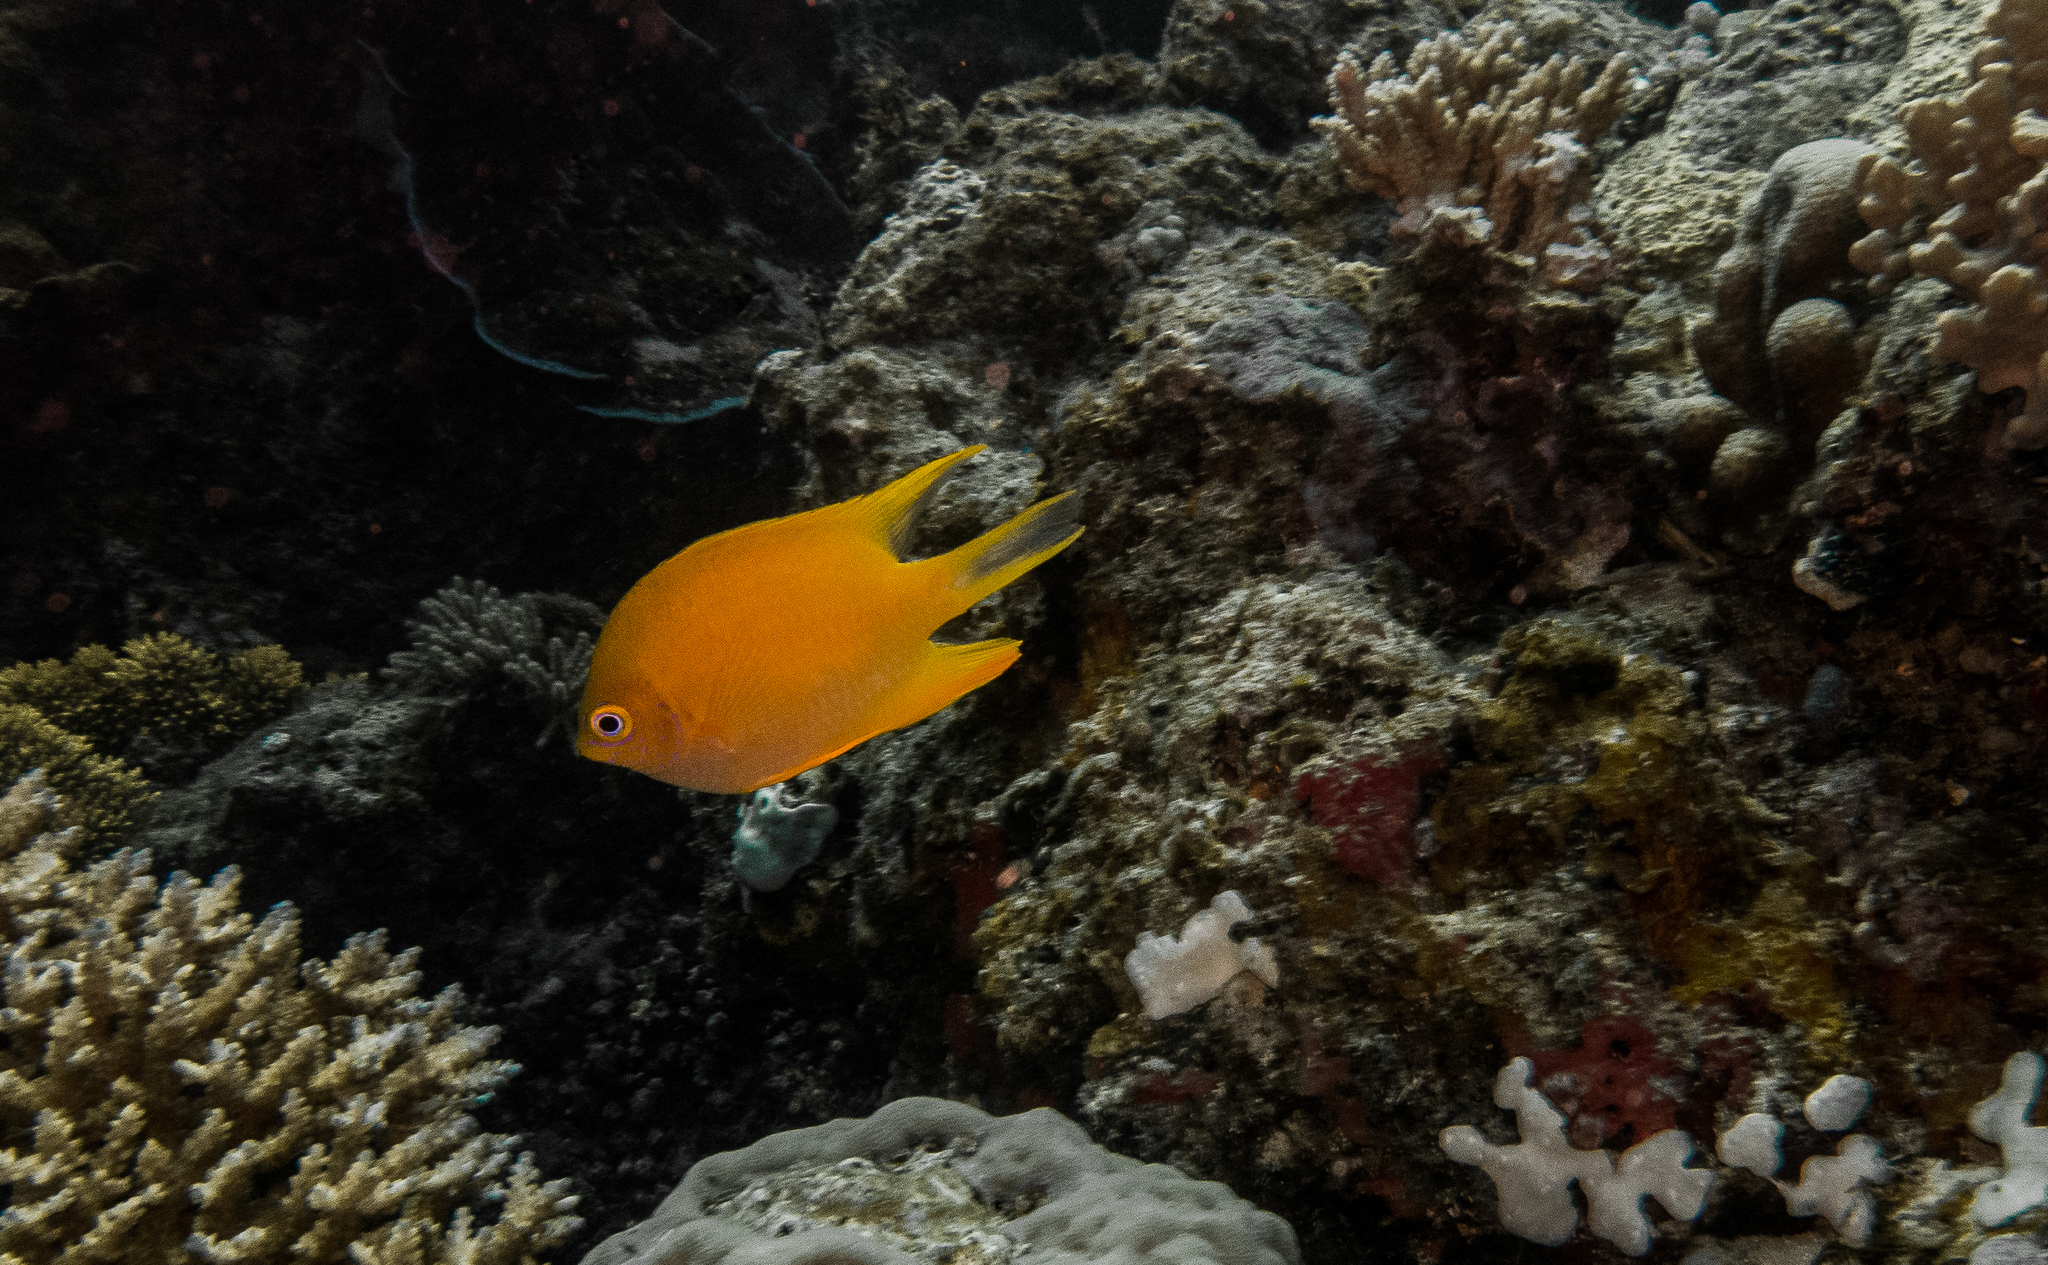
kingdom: Animalia
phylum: Chordata
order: Perciformes
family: Pomacentridae
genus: Amblyglyphidodon
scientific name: Amblyglyphidodon aureus
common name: Golden damsel
